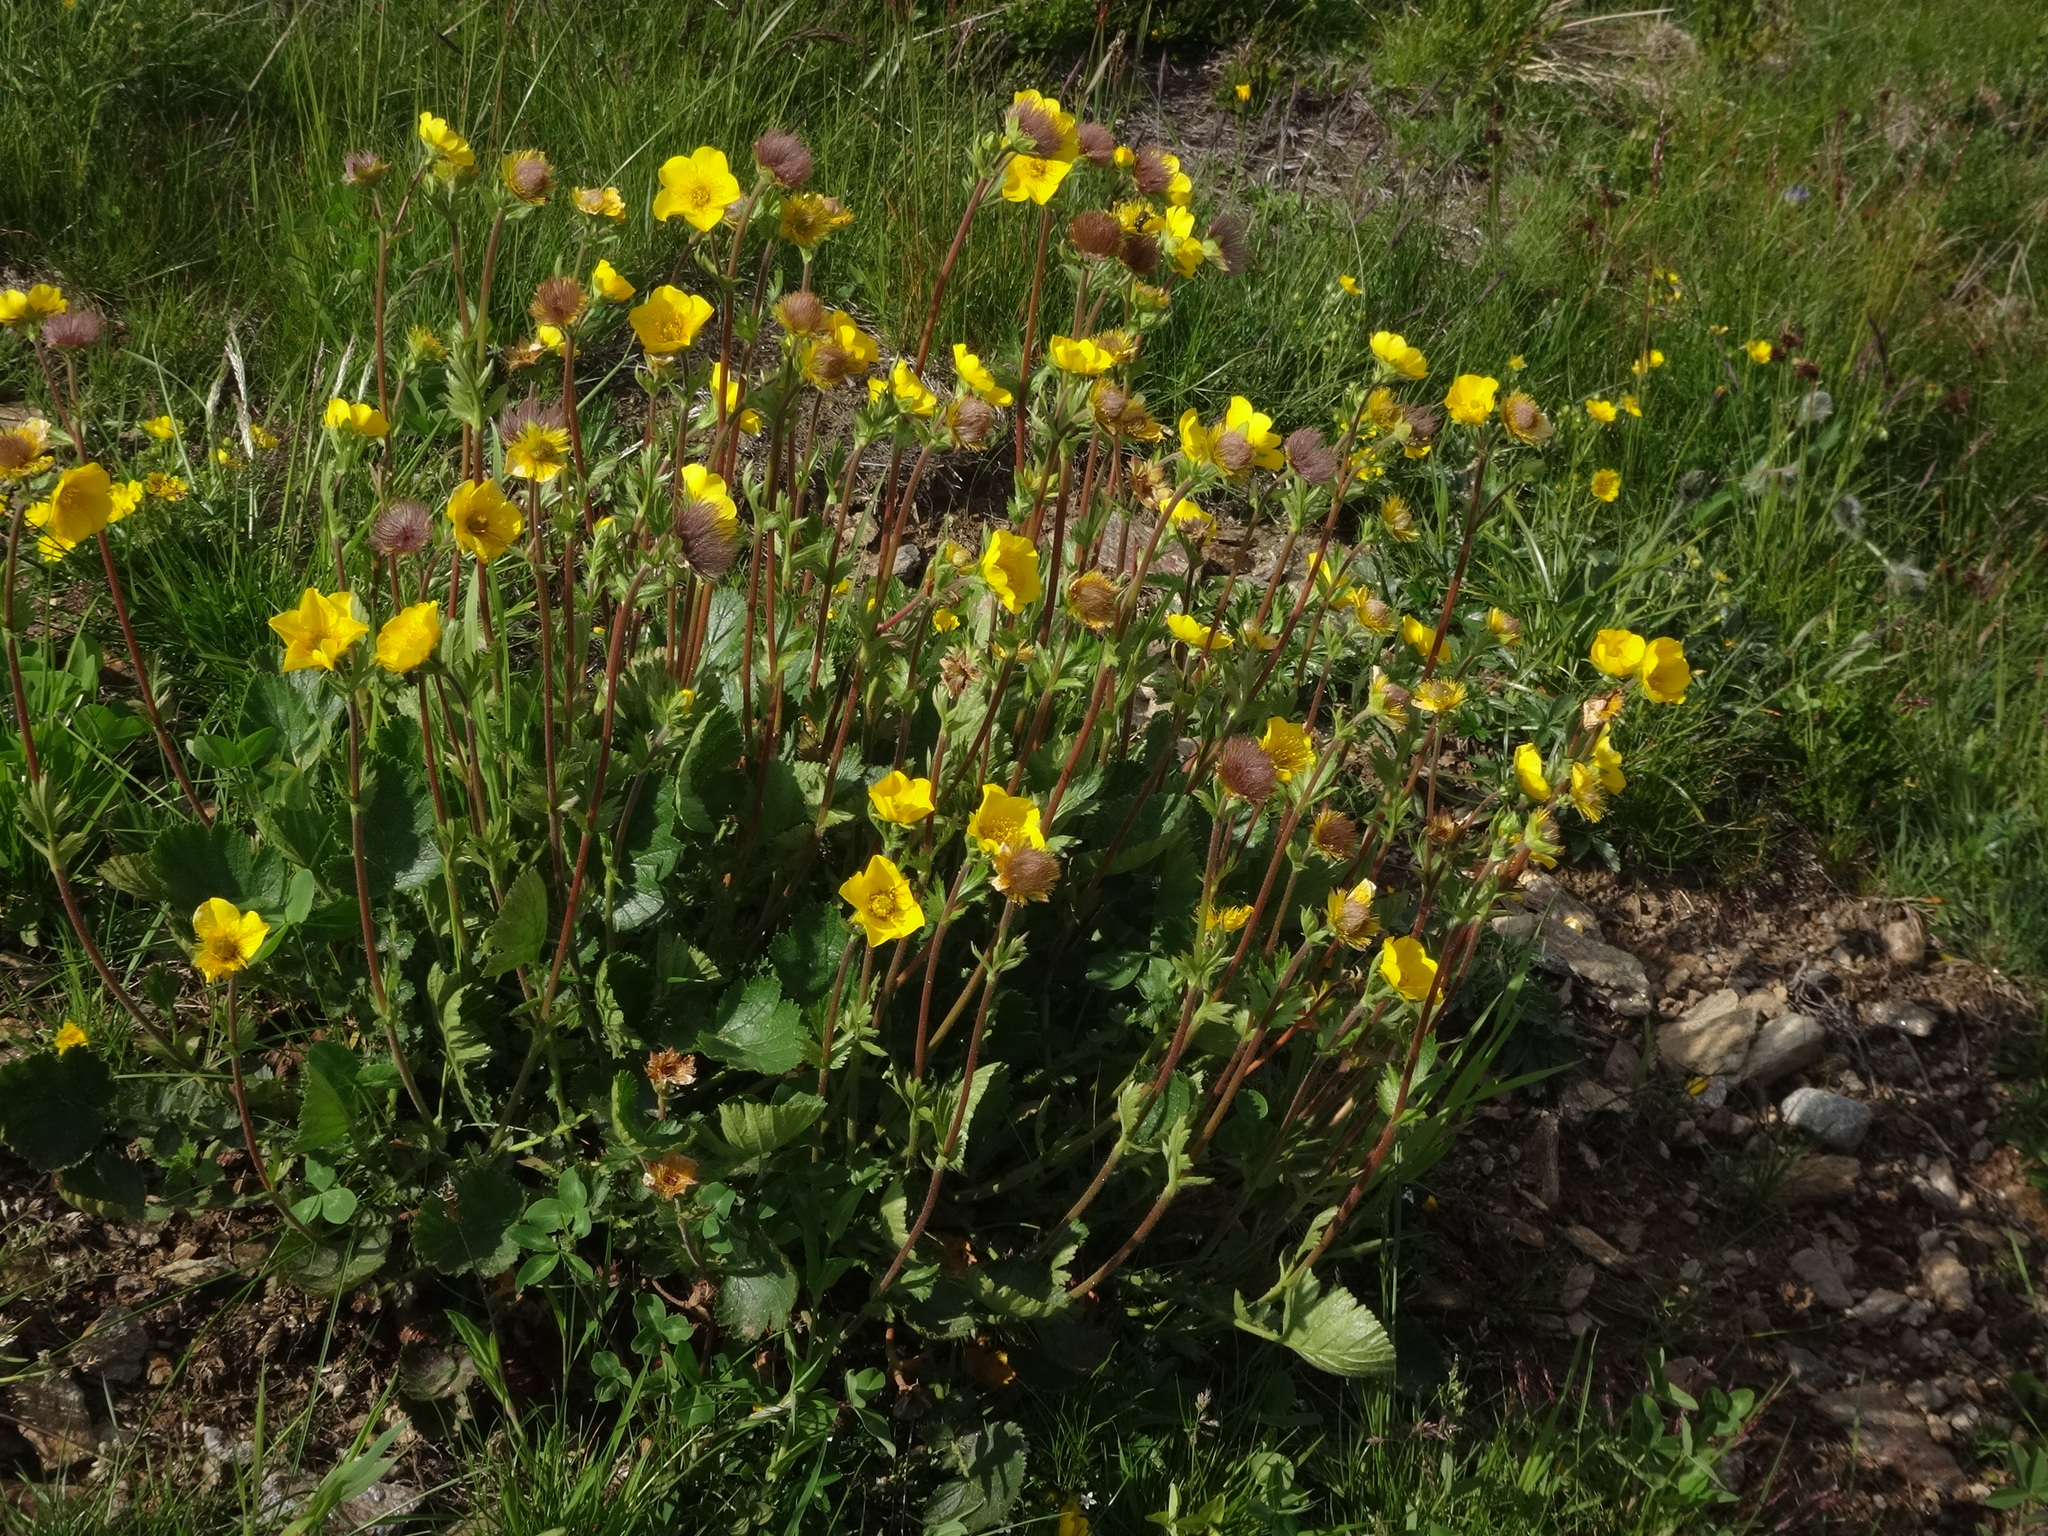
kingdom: Plantae
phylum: Tracheophyta
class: Magnoliopsida
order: Rosales
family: Rosaceae
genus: Geum
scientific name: Geum montanum
